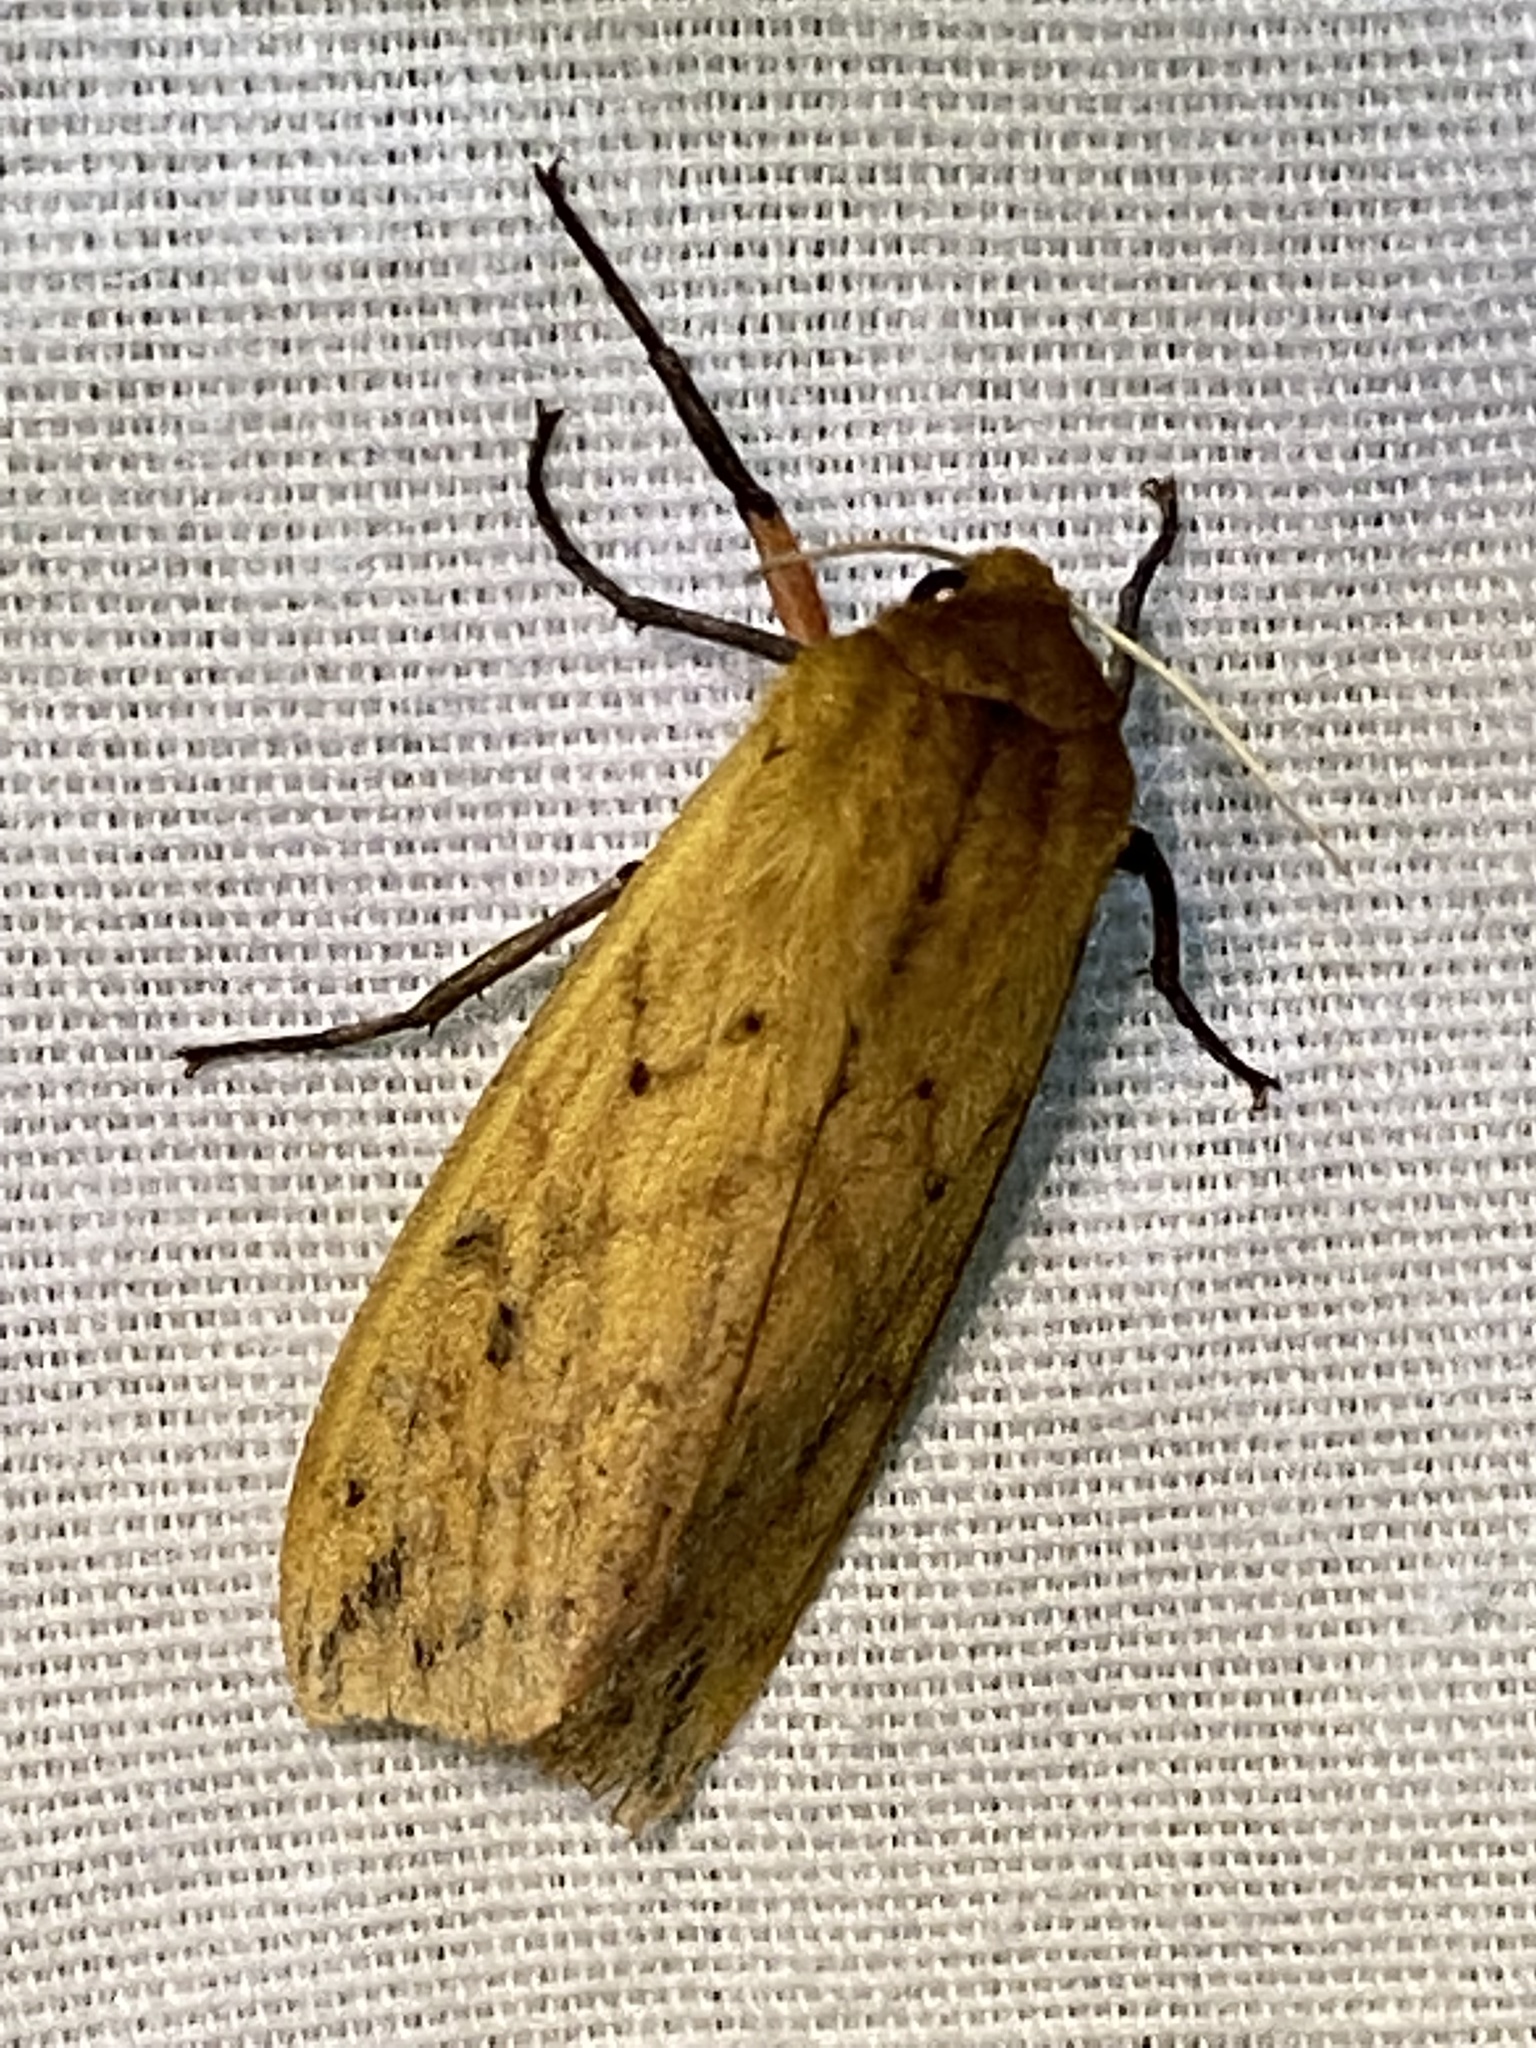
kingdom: Animalia
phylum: Arthropoda
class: Insecta
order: Lepidoptera
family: Erebidae
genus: Pyrrharctia
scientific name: Pyrrharctia isabella
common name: Isabella tiger moth
